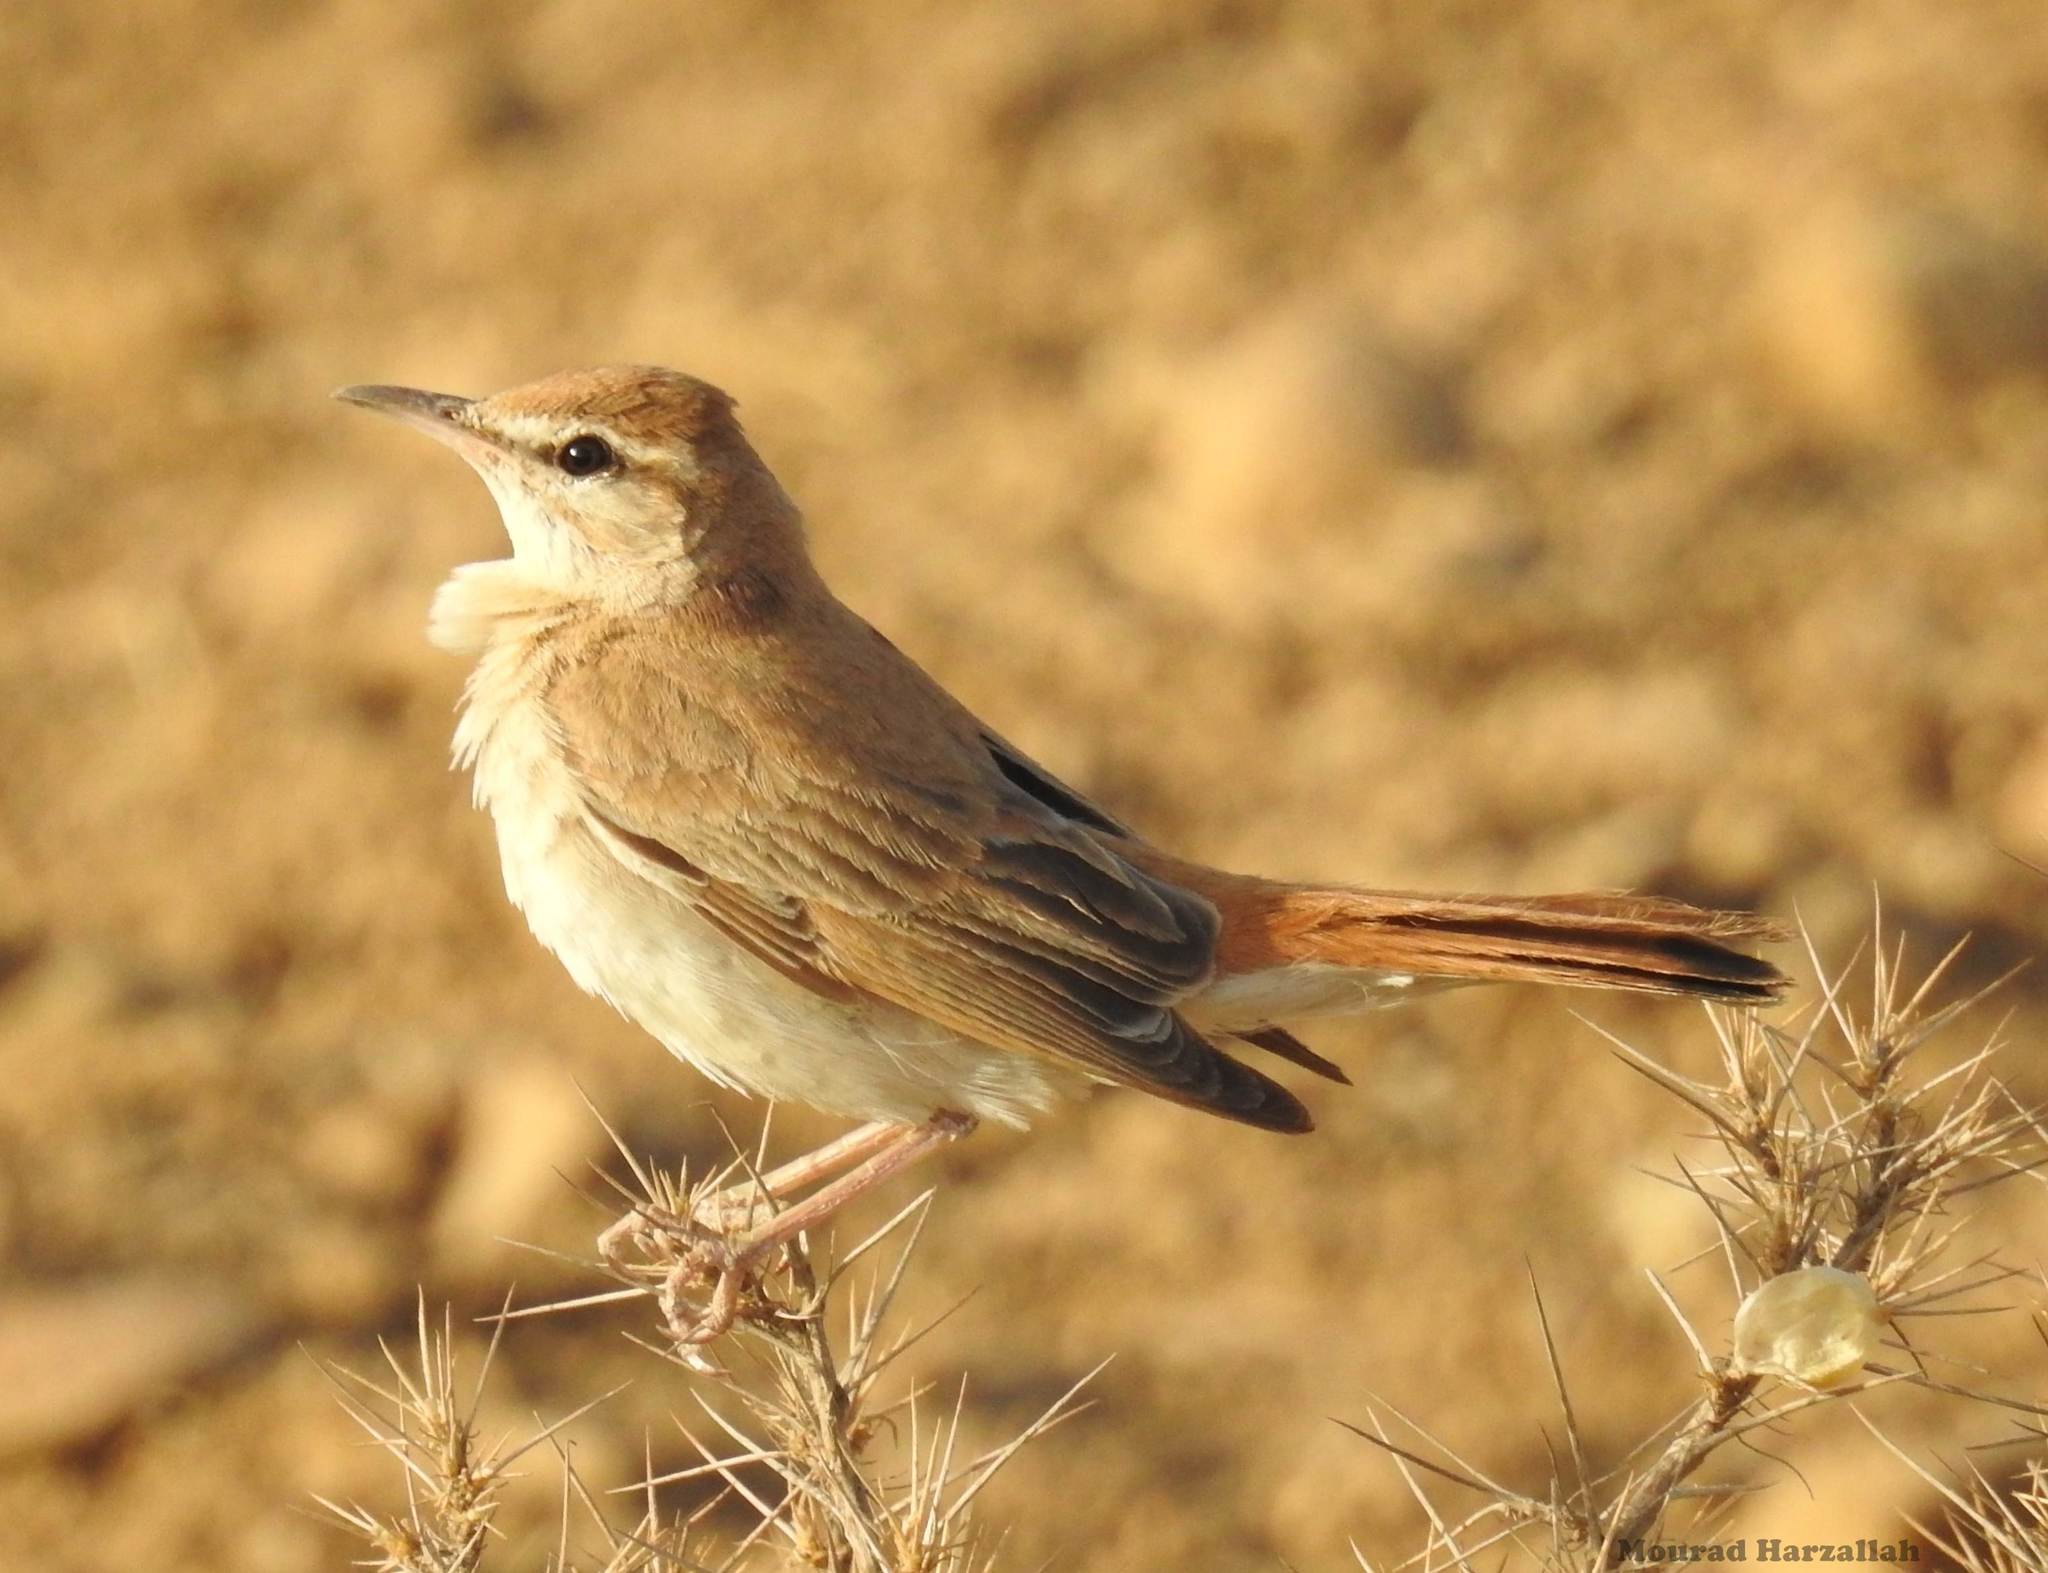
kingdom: Animalia
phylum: Chordata
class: Aves
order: Passeriformes
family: Muscicapidae
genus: Erythropygia
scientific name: Erythropygia galactotes
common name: Rufous-tailed scrub robin
